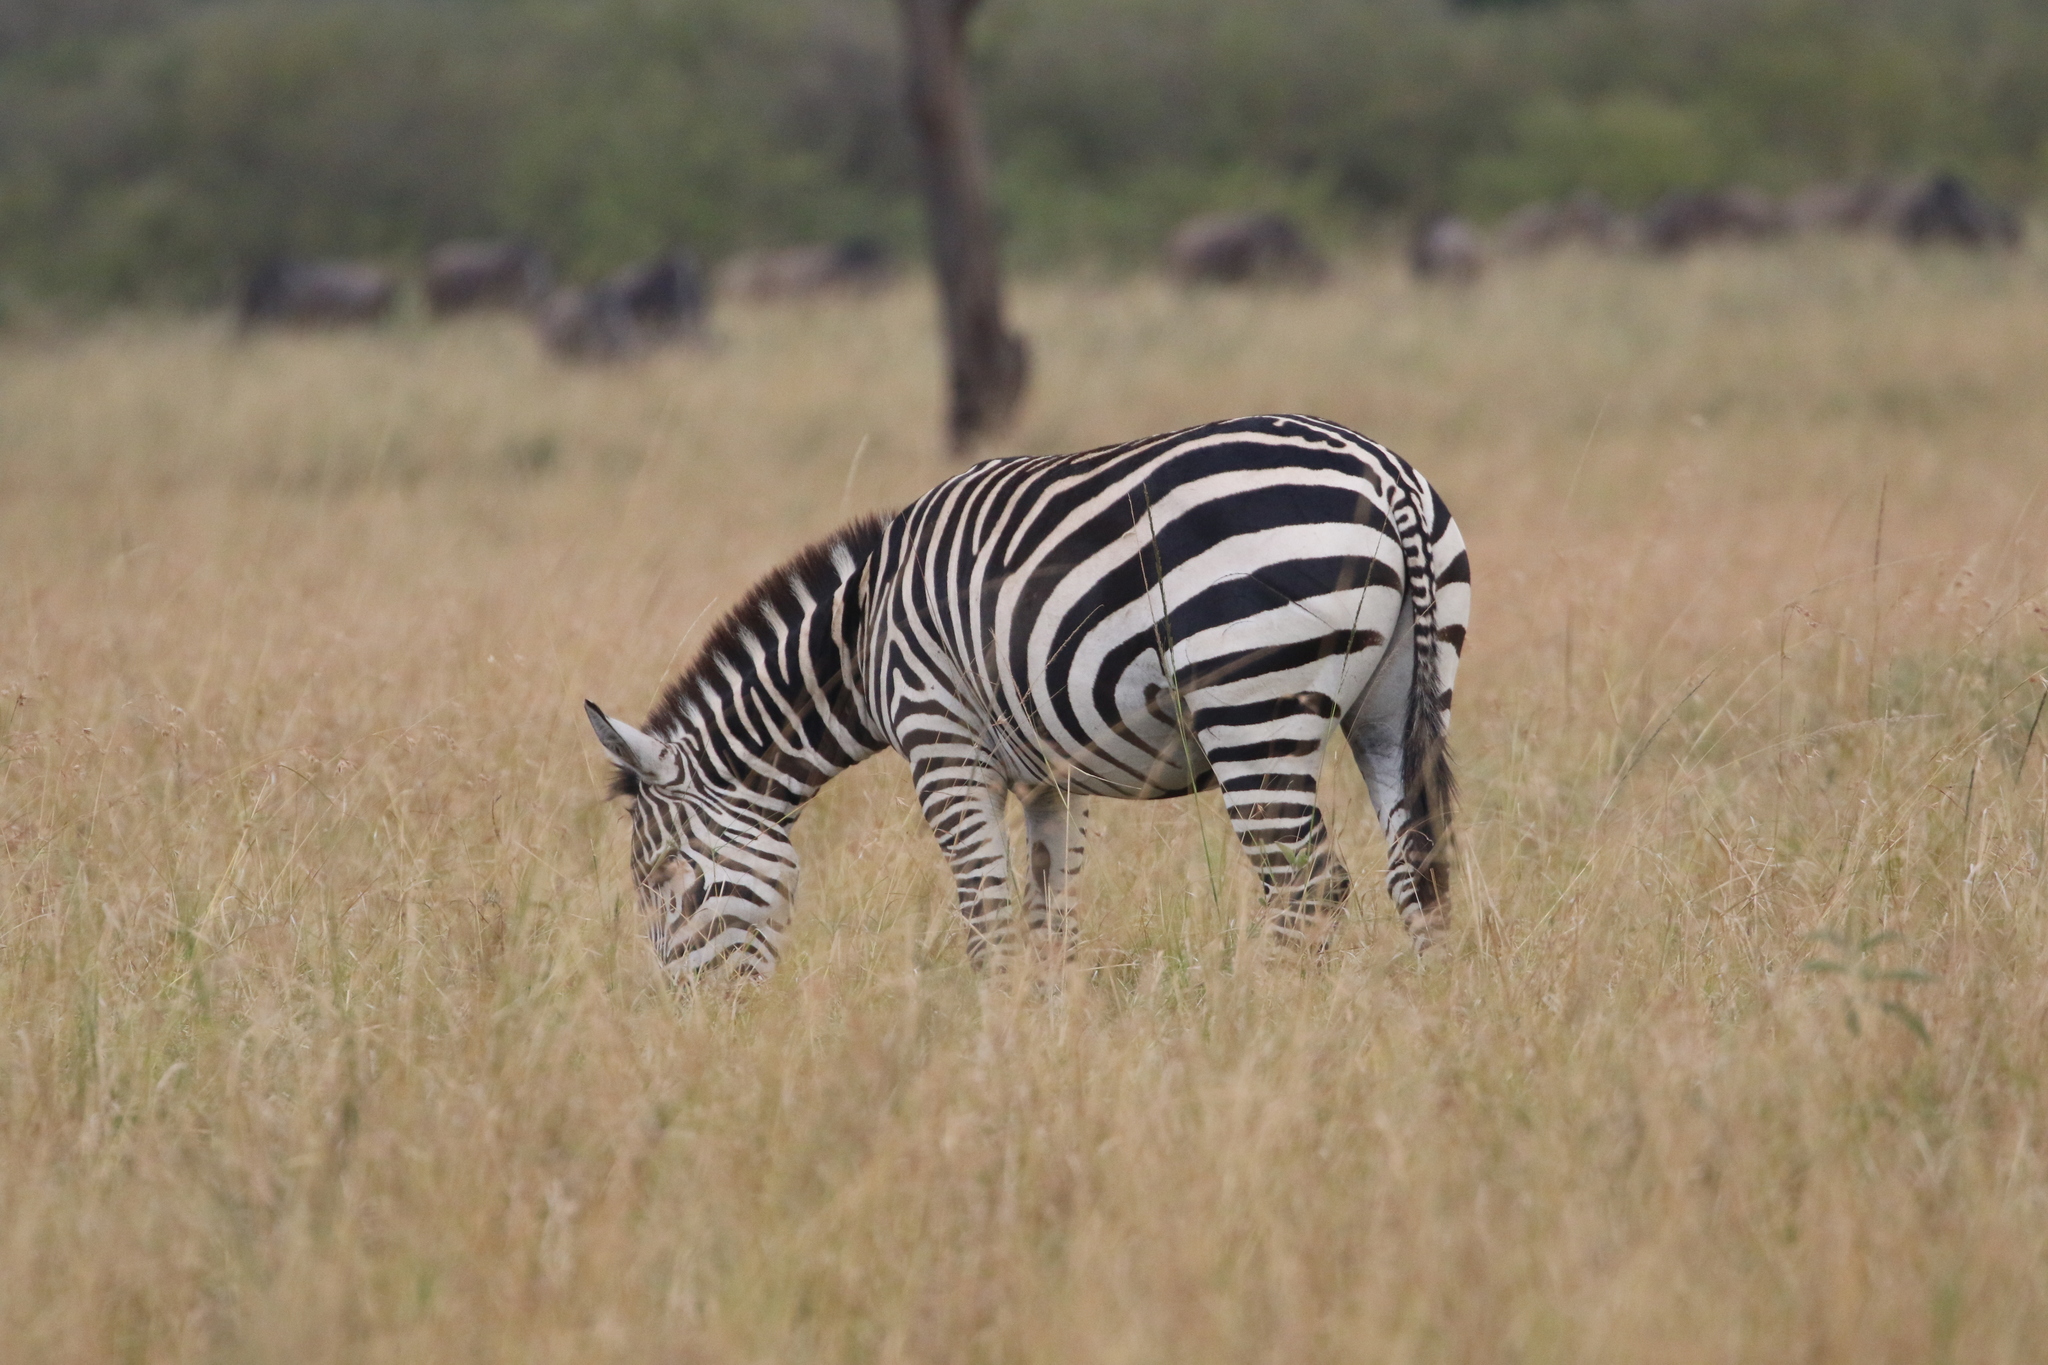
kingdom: Animalia
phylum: Chordata
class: Mammalia
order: Perissodactyla
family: Equidae
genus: Equus
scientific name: Equus quagga
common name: Plains zebra
